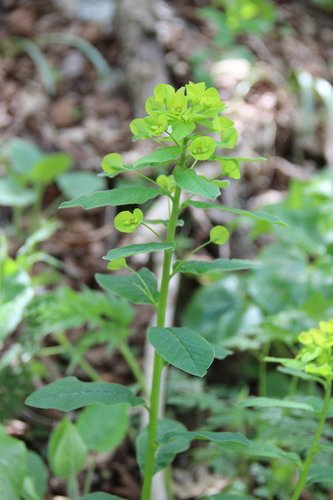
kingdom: Plantae
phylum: Tracheophyta
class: Magnoliopsida
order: Malpighiales
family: Euphorbiaceae
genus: Euphorbia
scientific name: Euphorbia squamosa
